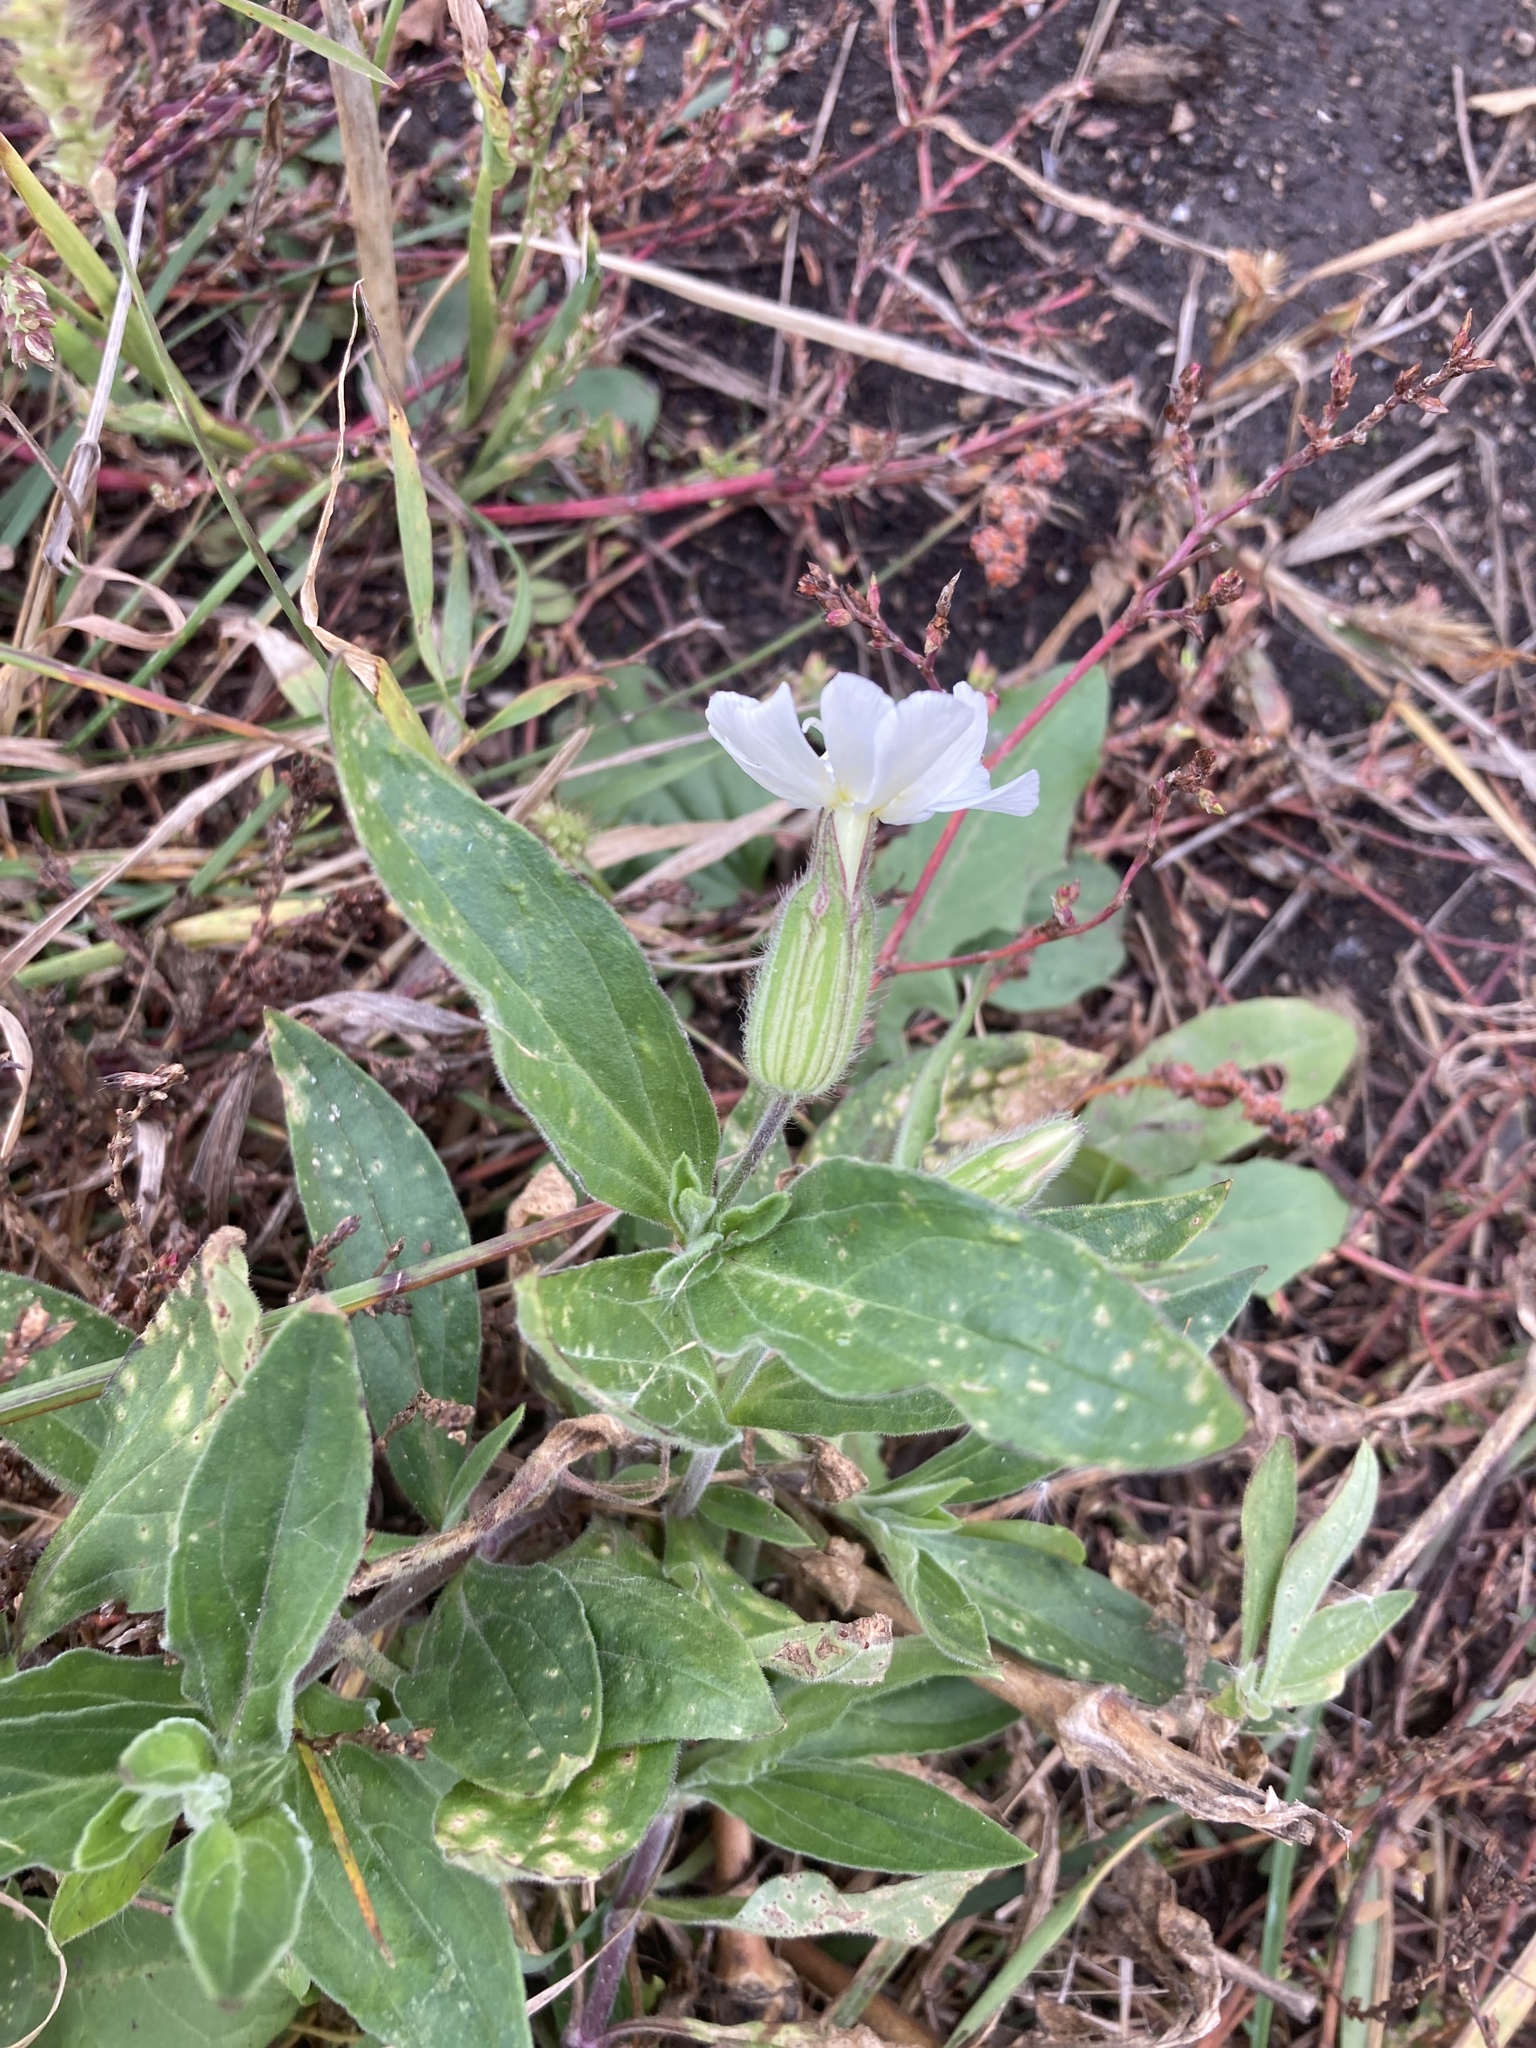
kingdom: Plantae
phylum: Tracheophyta
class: Magnoliopsida
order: Caryophyllales
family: Caryophyllaceae
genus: Silene
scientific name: Silene latifolia
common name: White campion
